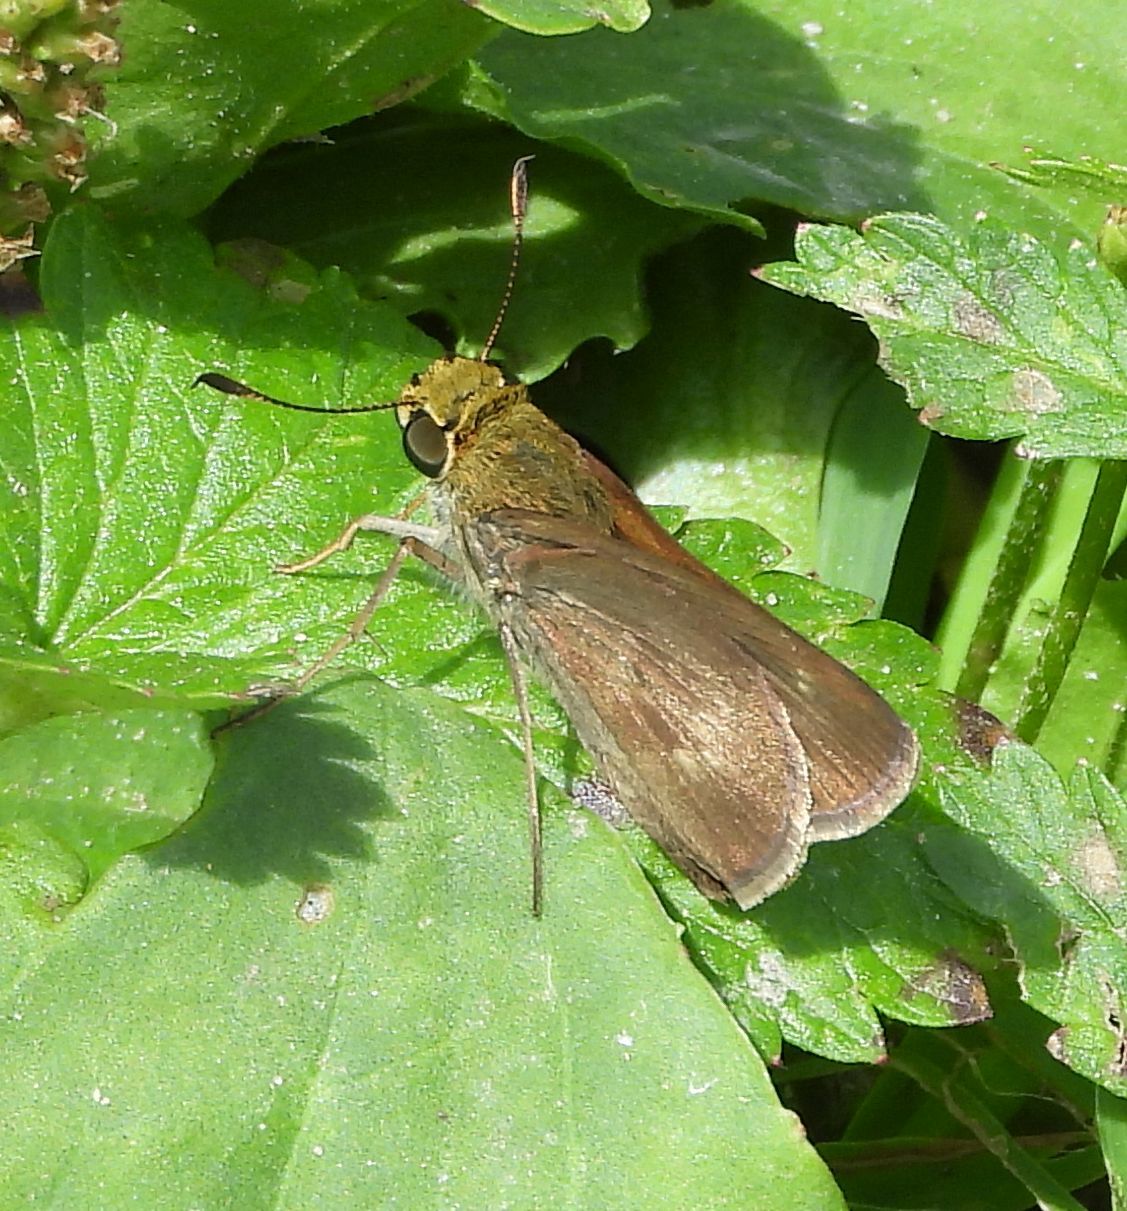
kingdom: Animalia
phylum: Arthropoda
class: Insecta
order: Lepidoptera
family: Hesperiidae
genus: Euphyes
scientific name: Euphyes vestris
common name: Dun skipper
